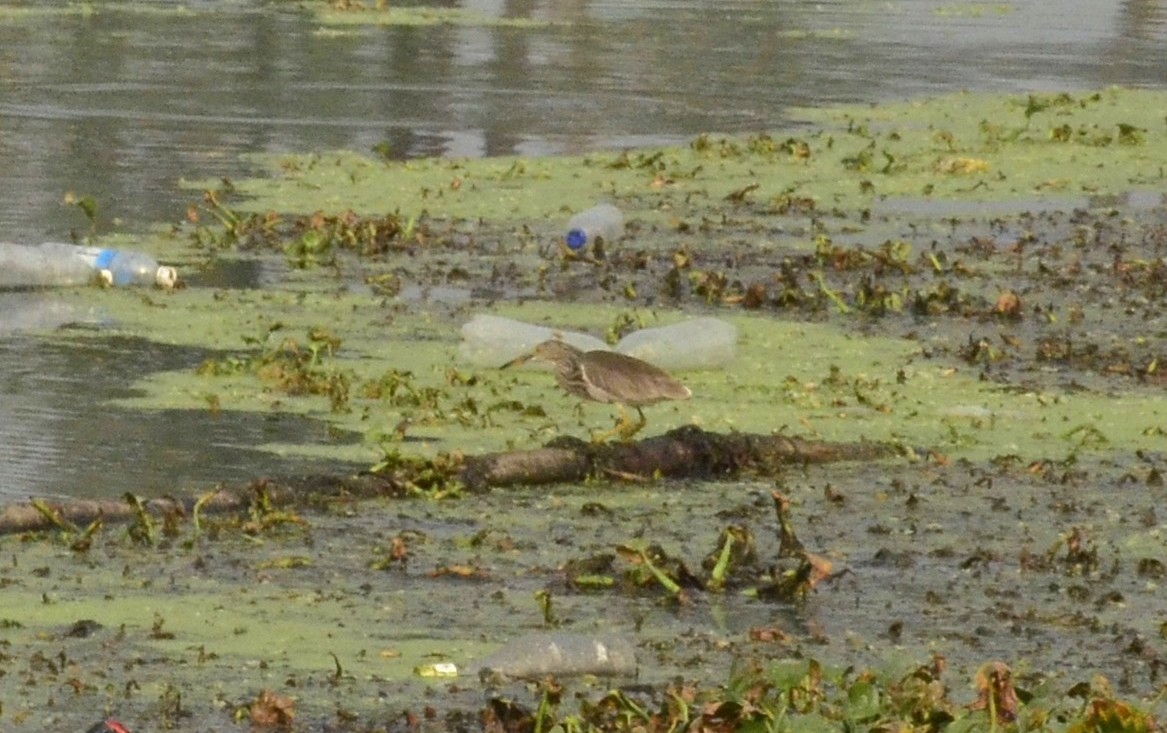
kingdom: Animalia
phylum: Chordata
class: Aves
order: Pelecaniformes
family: Ardeidae
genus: Ardeola
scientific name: Ardeola grayii
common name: Indian pond heron
